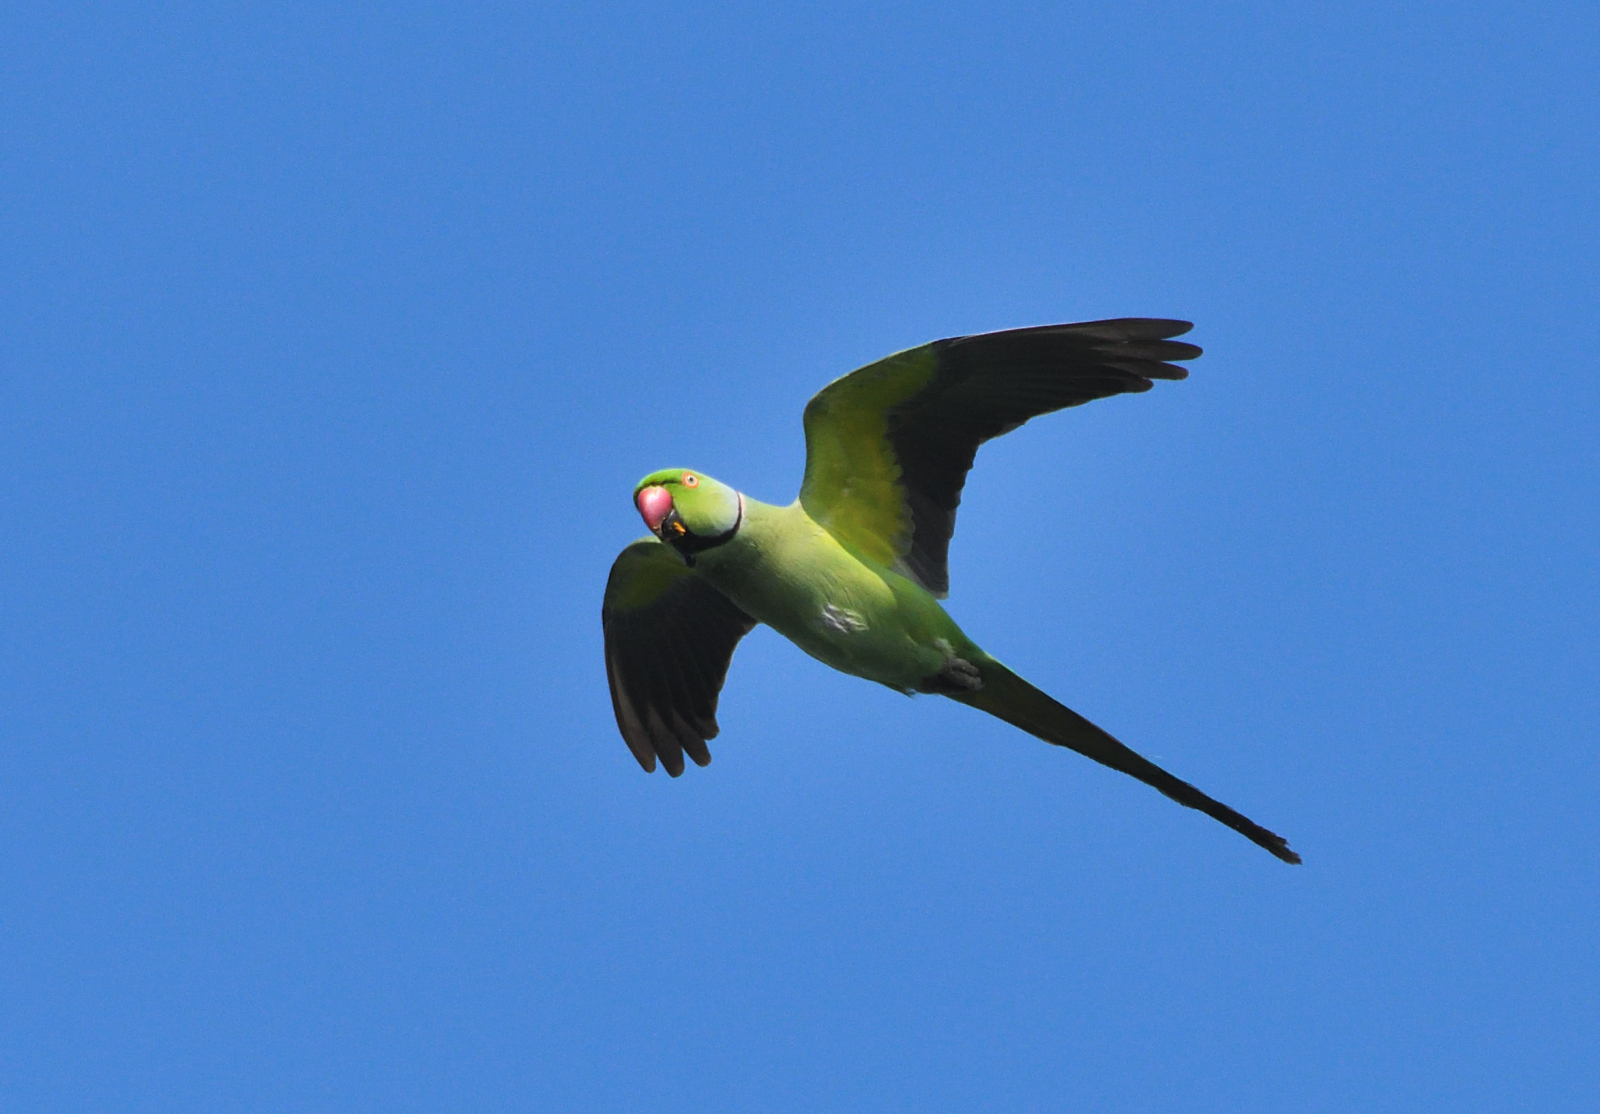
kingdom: Animalia
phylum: Chordata
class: Aves
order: Psittaciformes
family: Psittacidae
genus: Psittacula
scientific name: Psittacula krameri
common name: Rose-ringed parakeet
